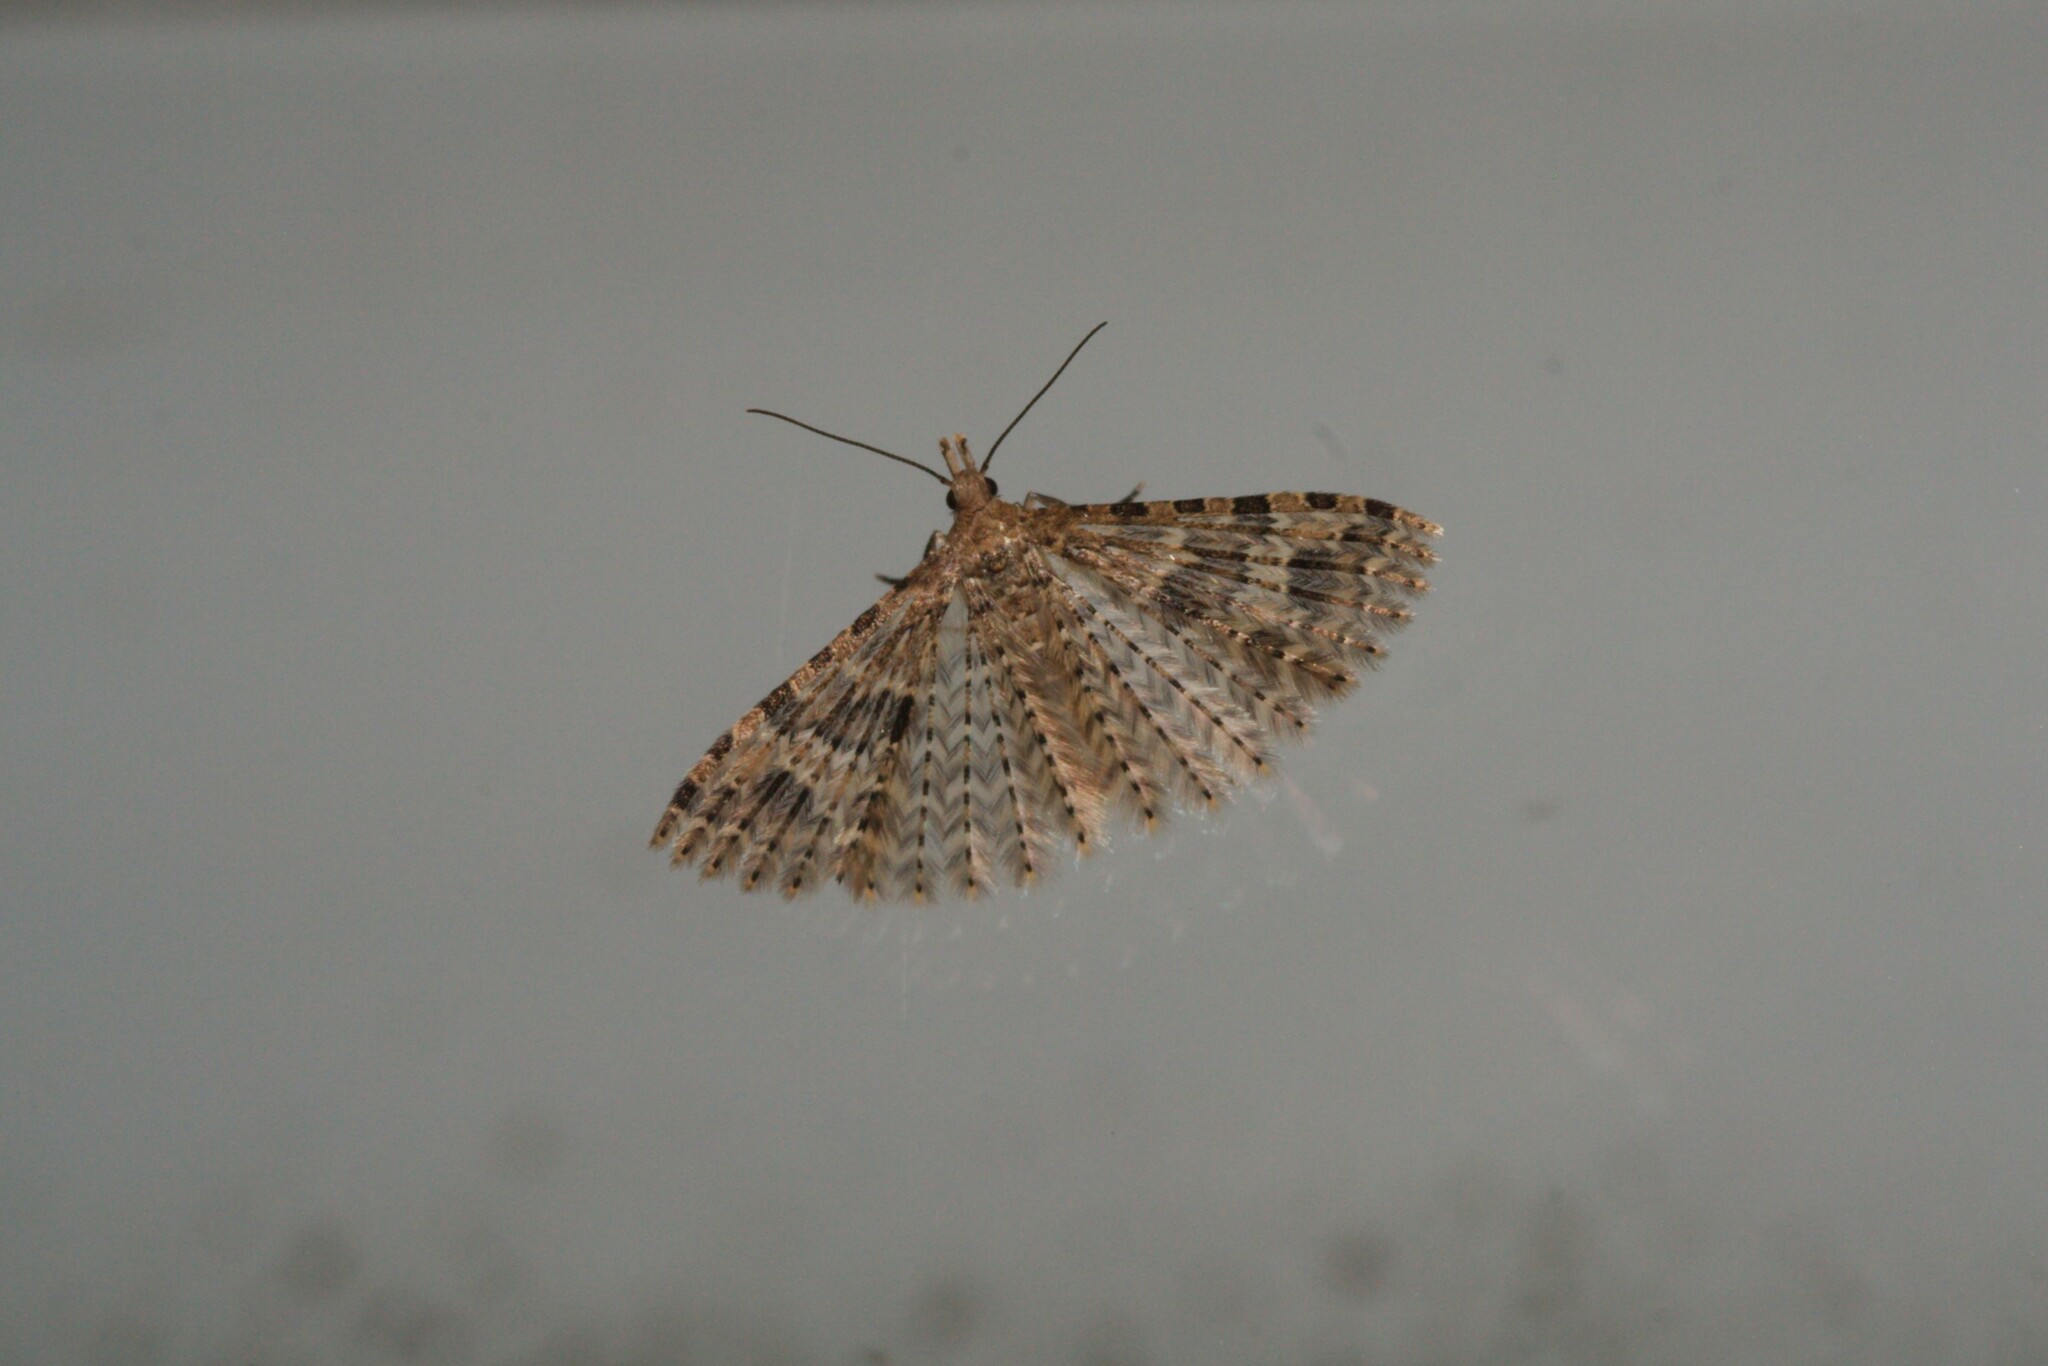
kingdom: Animalia
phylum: Arthropoda
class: Insecta
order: Lepidoptera
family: Alucitidae
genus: Alucita
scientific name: Alucita hexadactyla
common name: Twenty-plume moth
